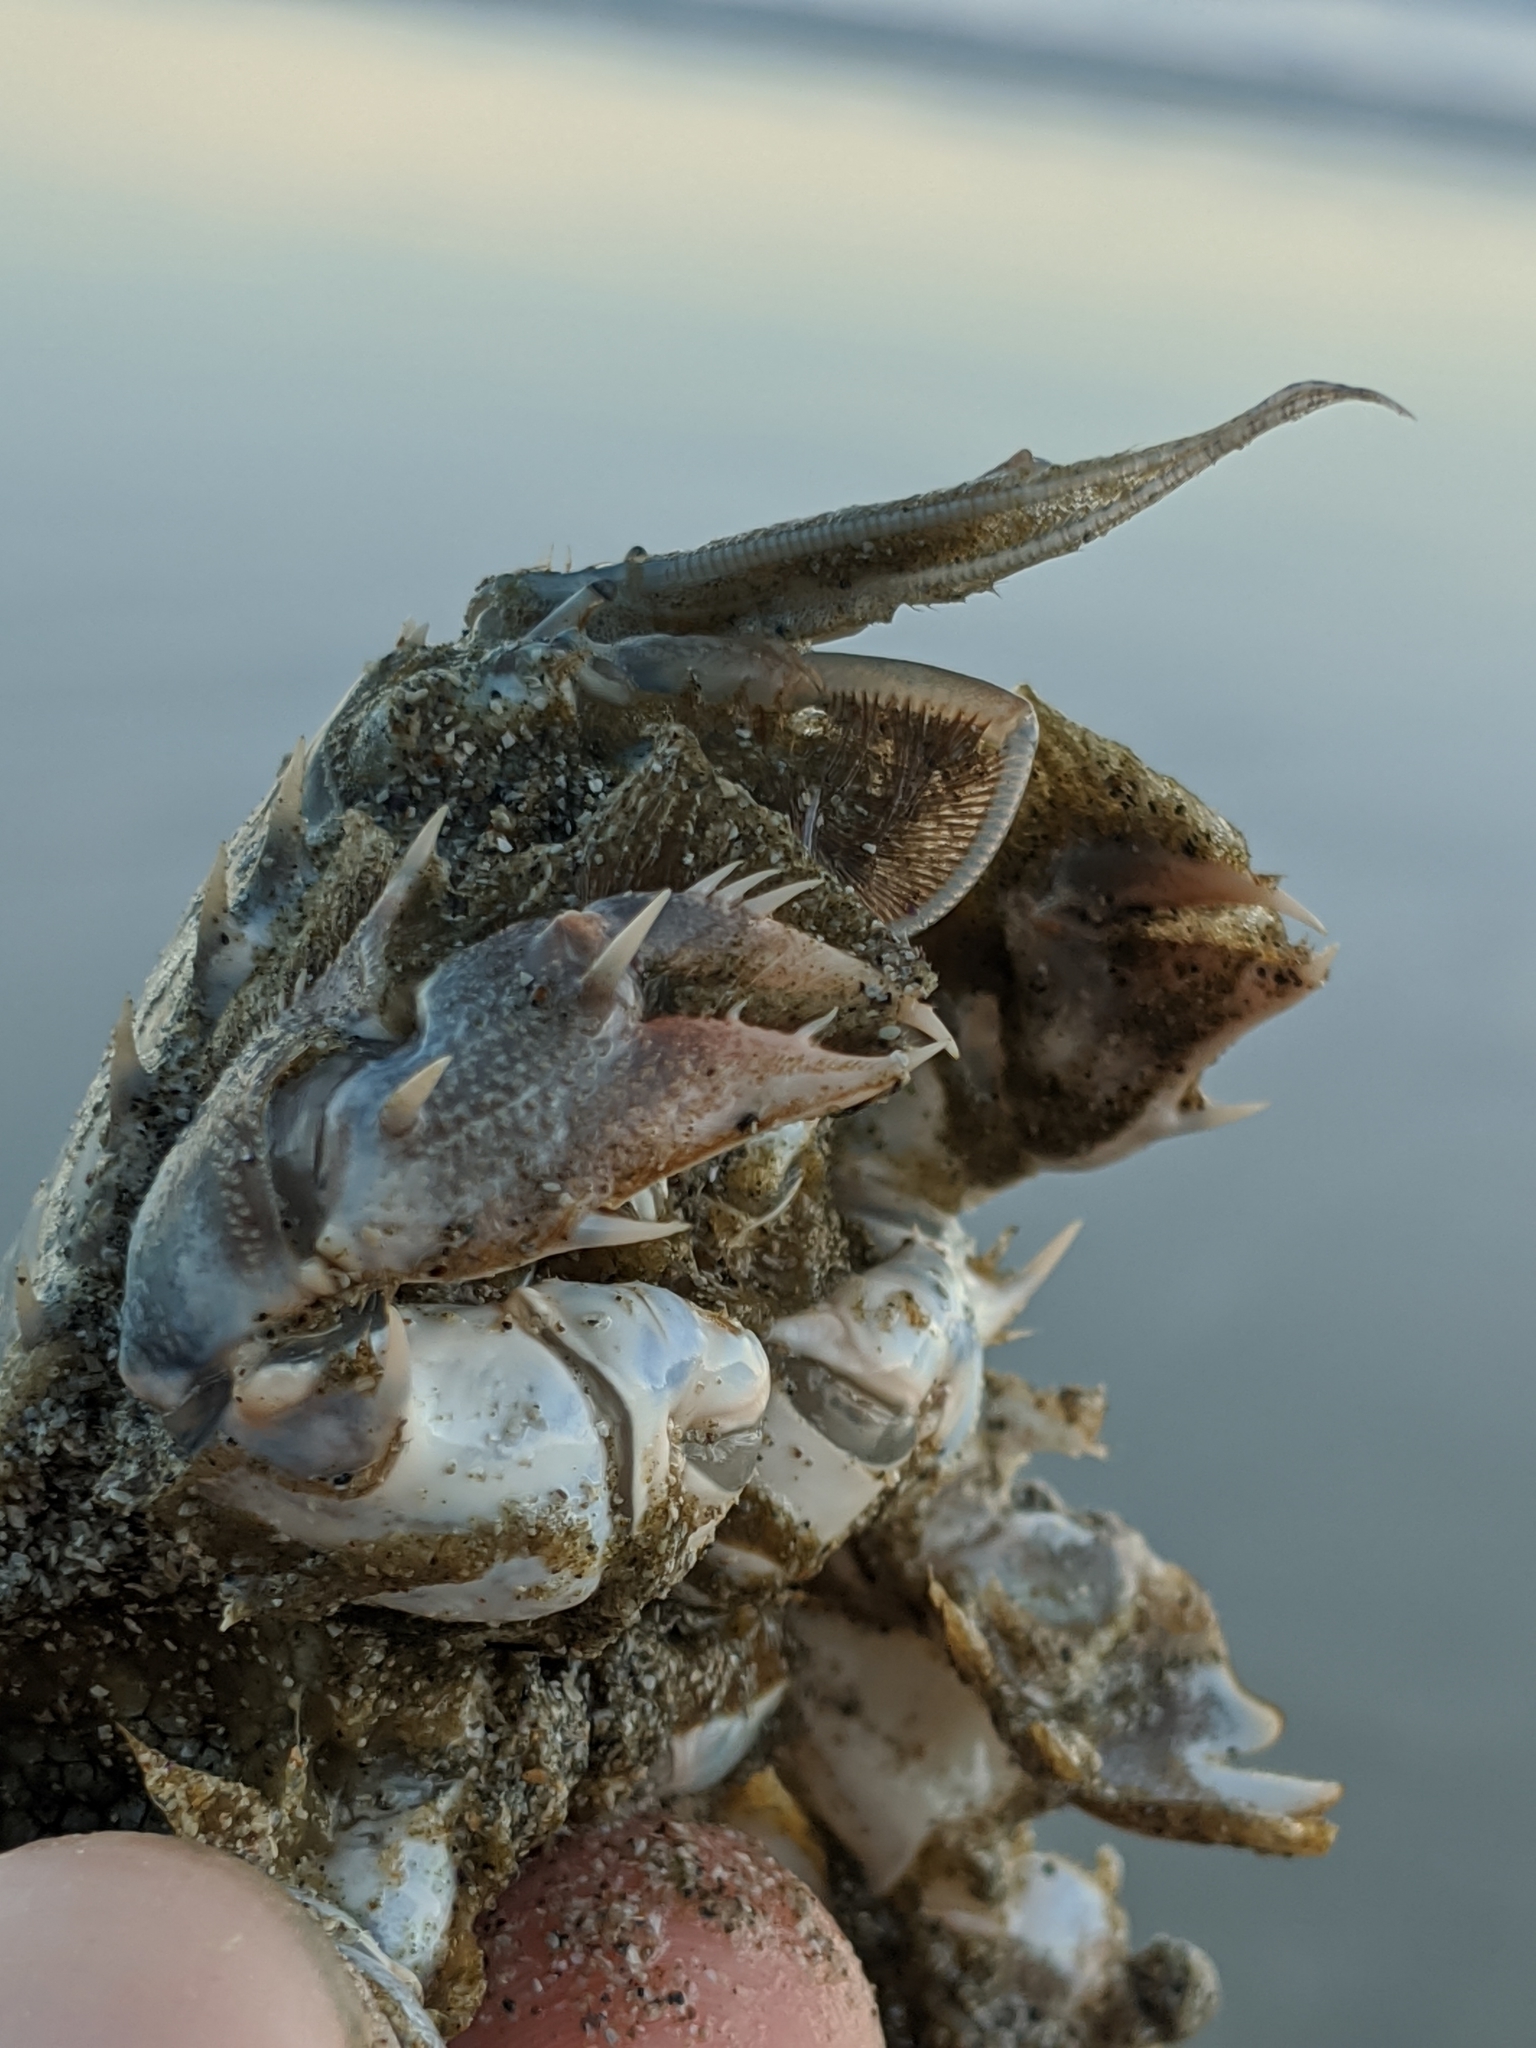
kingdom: Animalia
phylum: Arthropoda
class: Malacostraca
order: Decapoda
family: Blepharipodidae
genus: Blepharipoda
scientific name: Blepharipoda occidentalis
